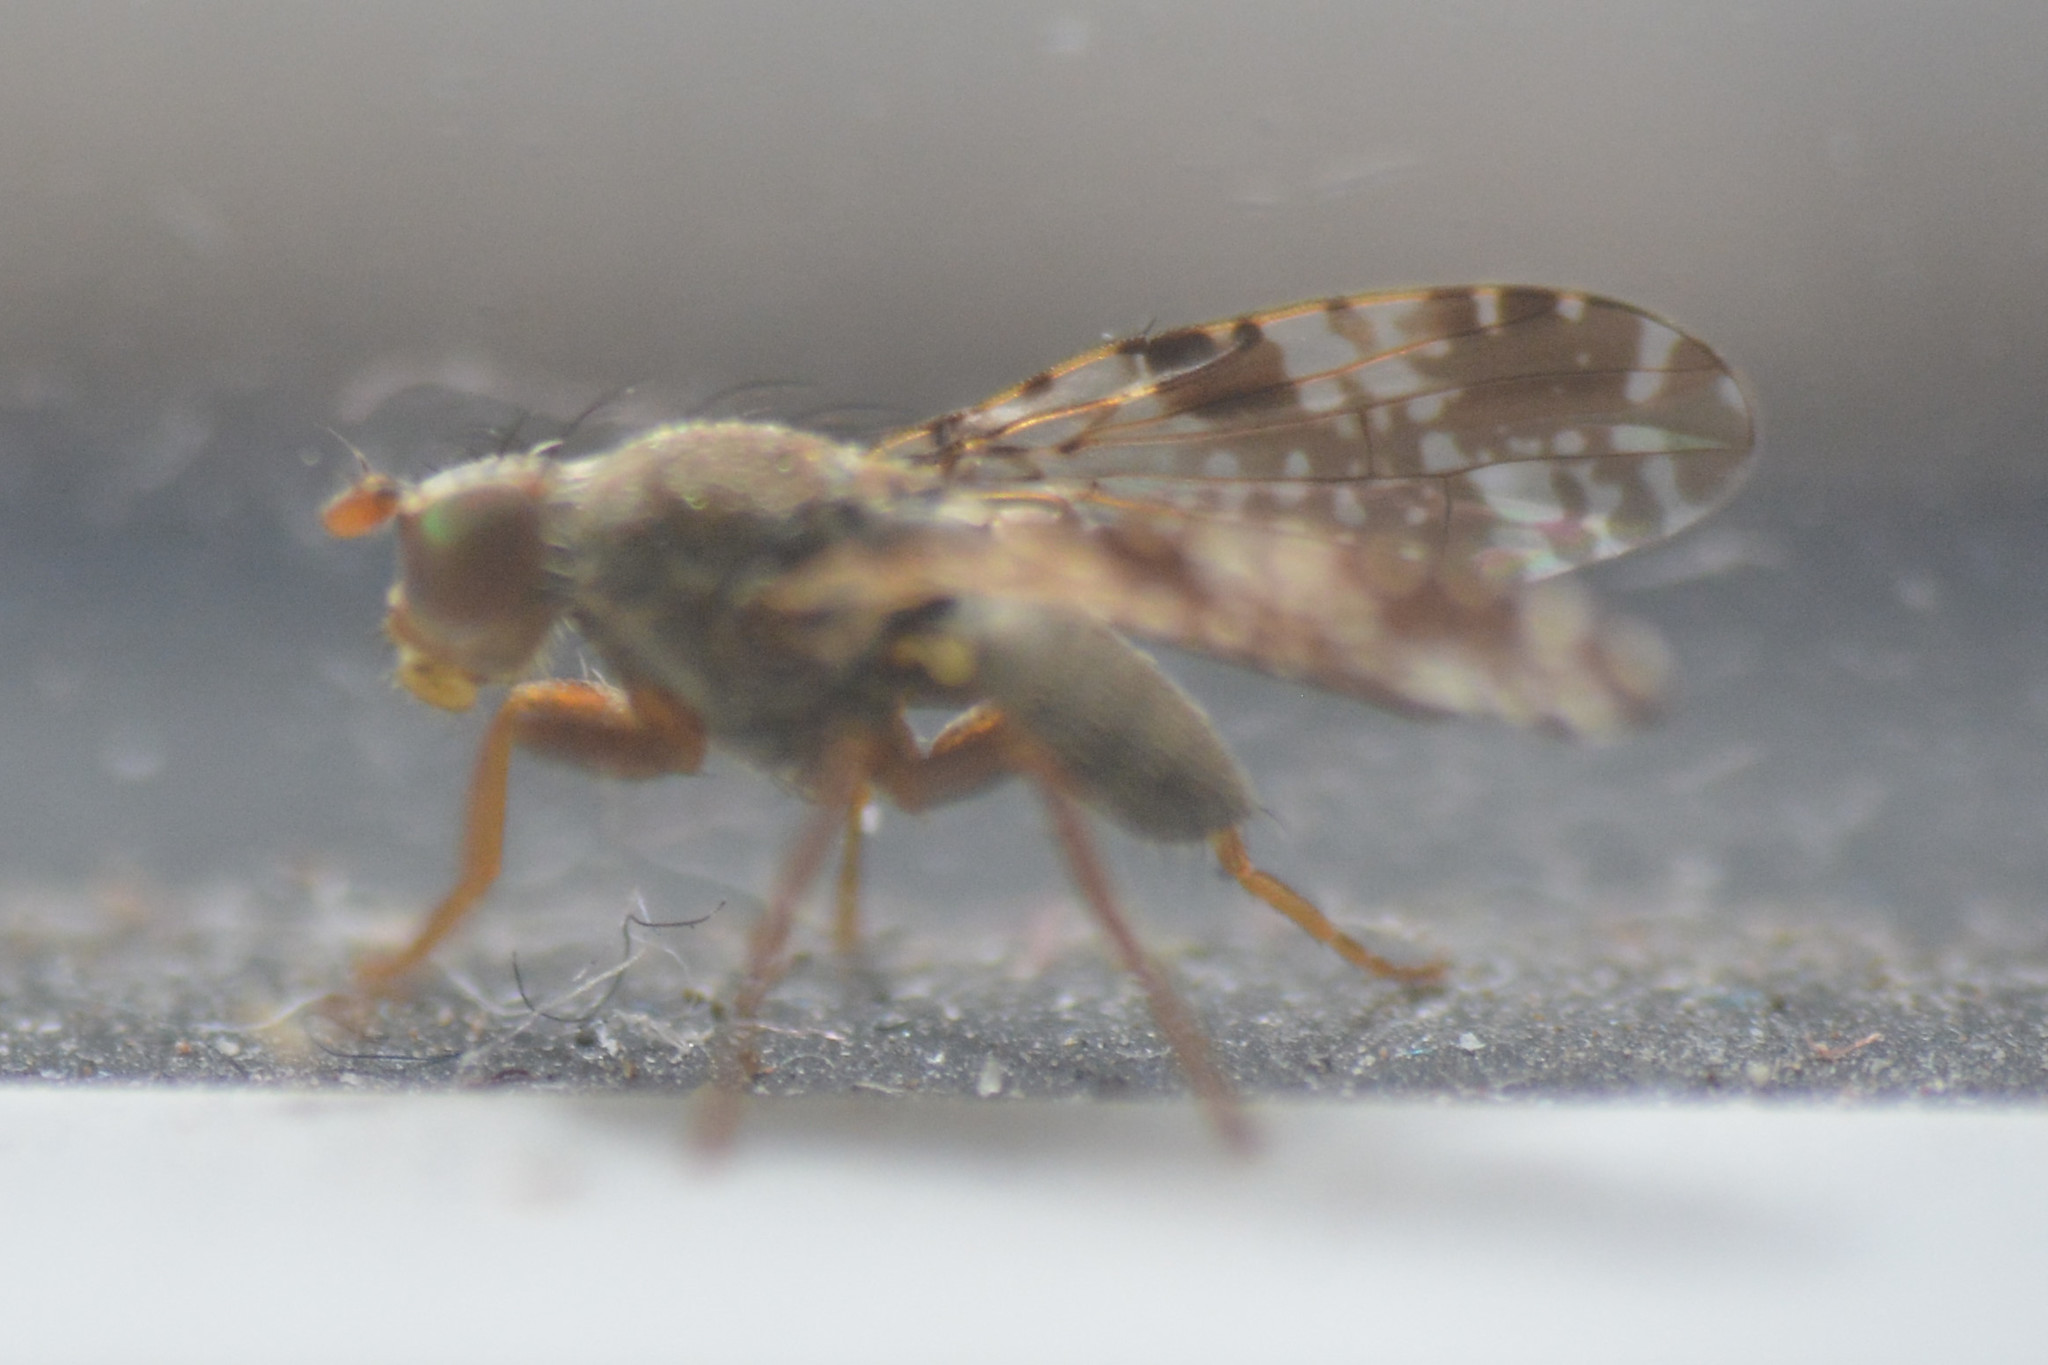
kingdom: Animalia
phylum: Arthropoda
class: Insecta
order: Diptera
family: Tephritidae
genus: Tephritis
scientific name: Tephritis vespertina
